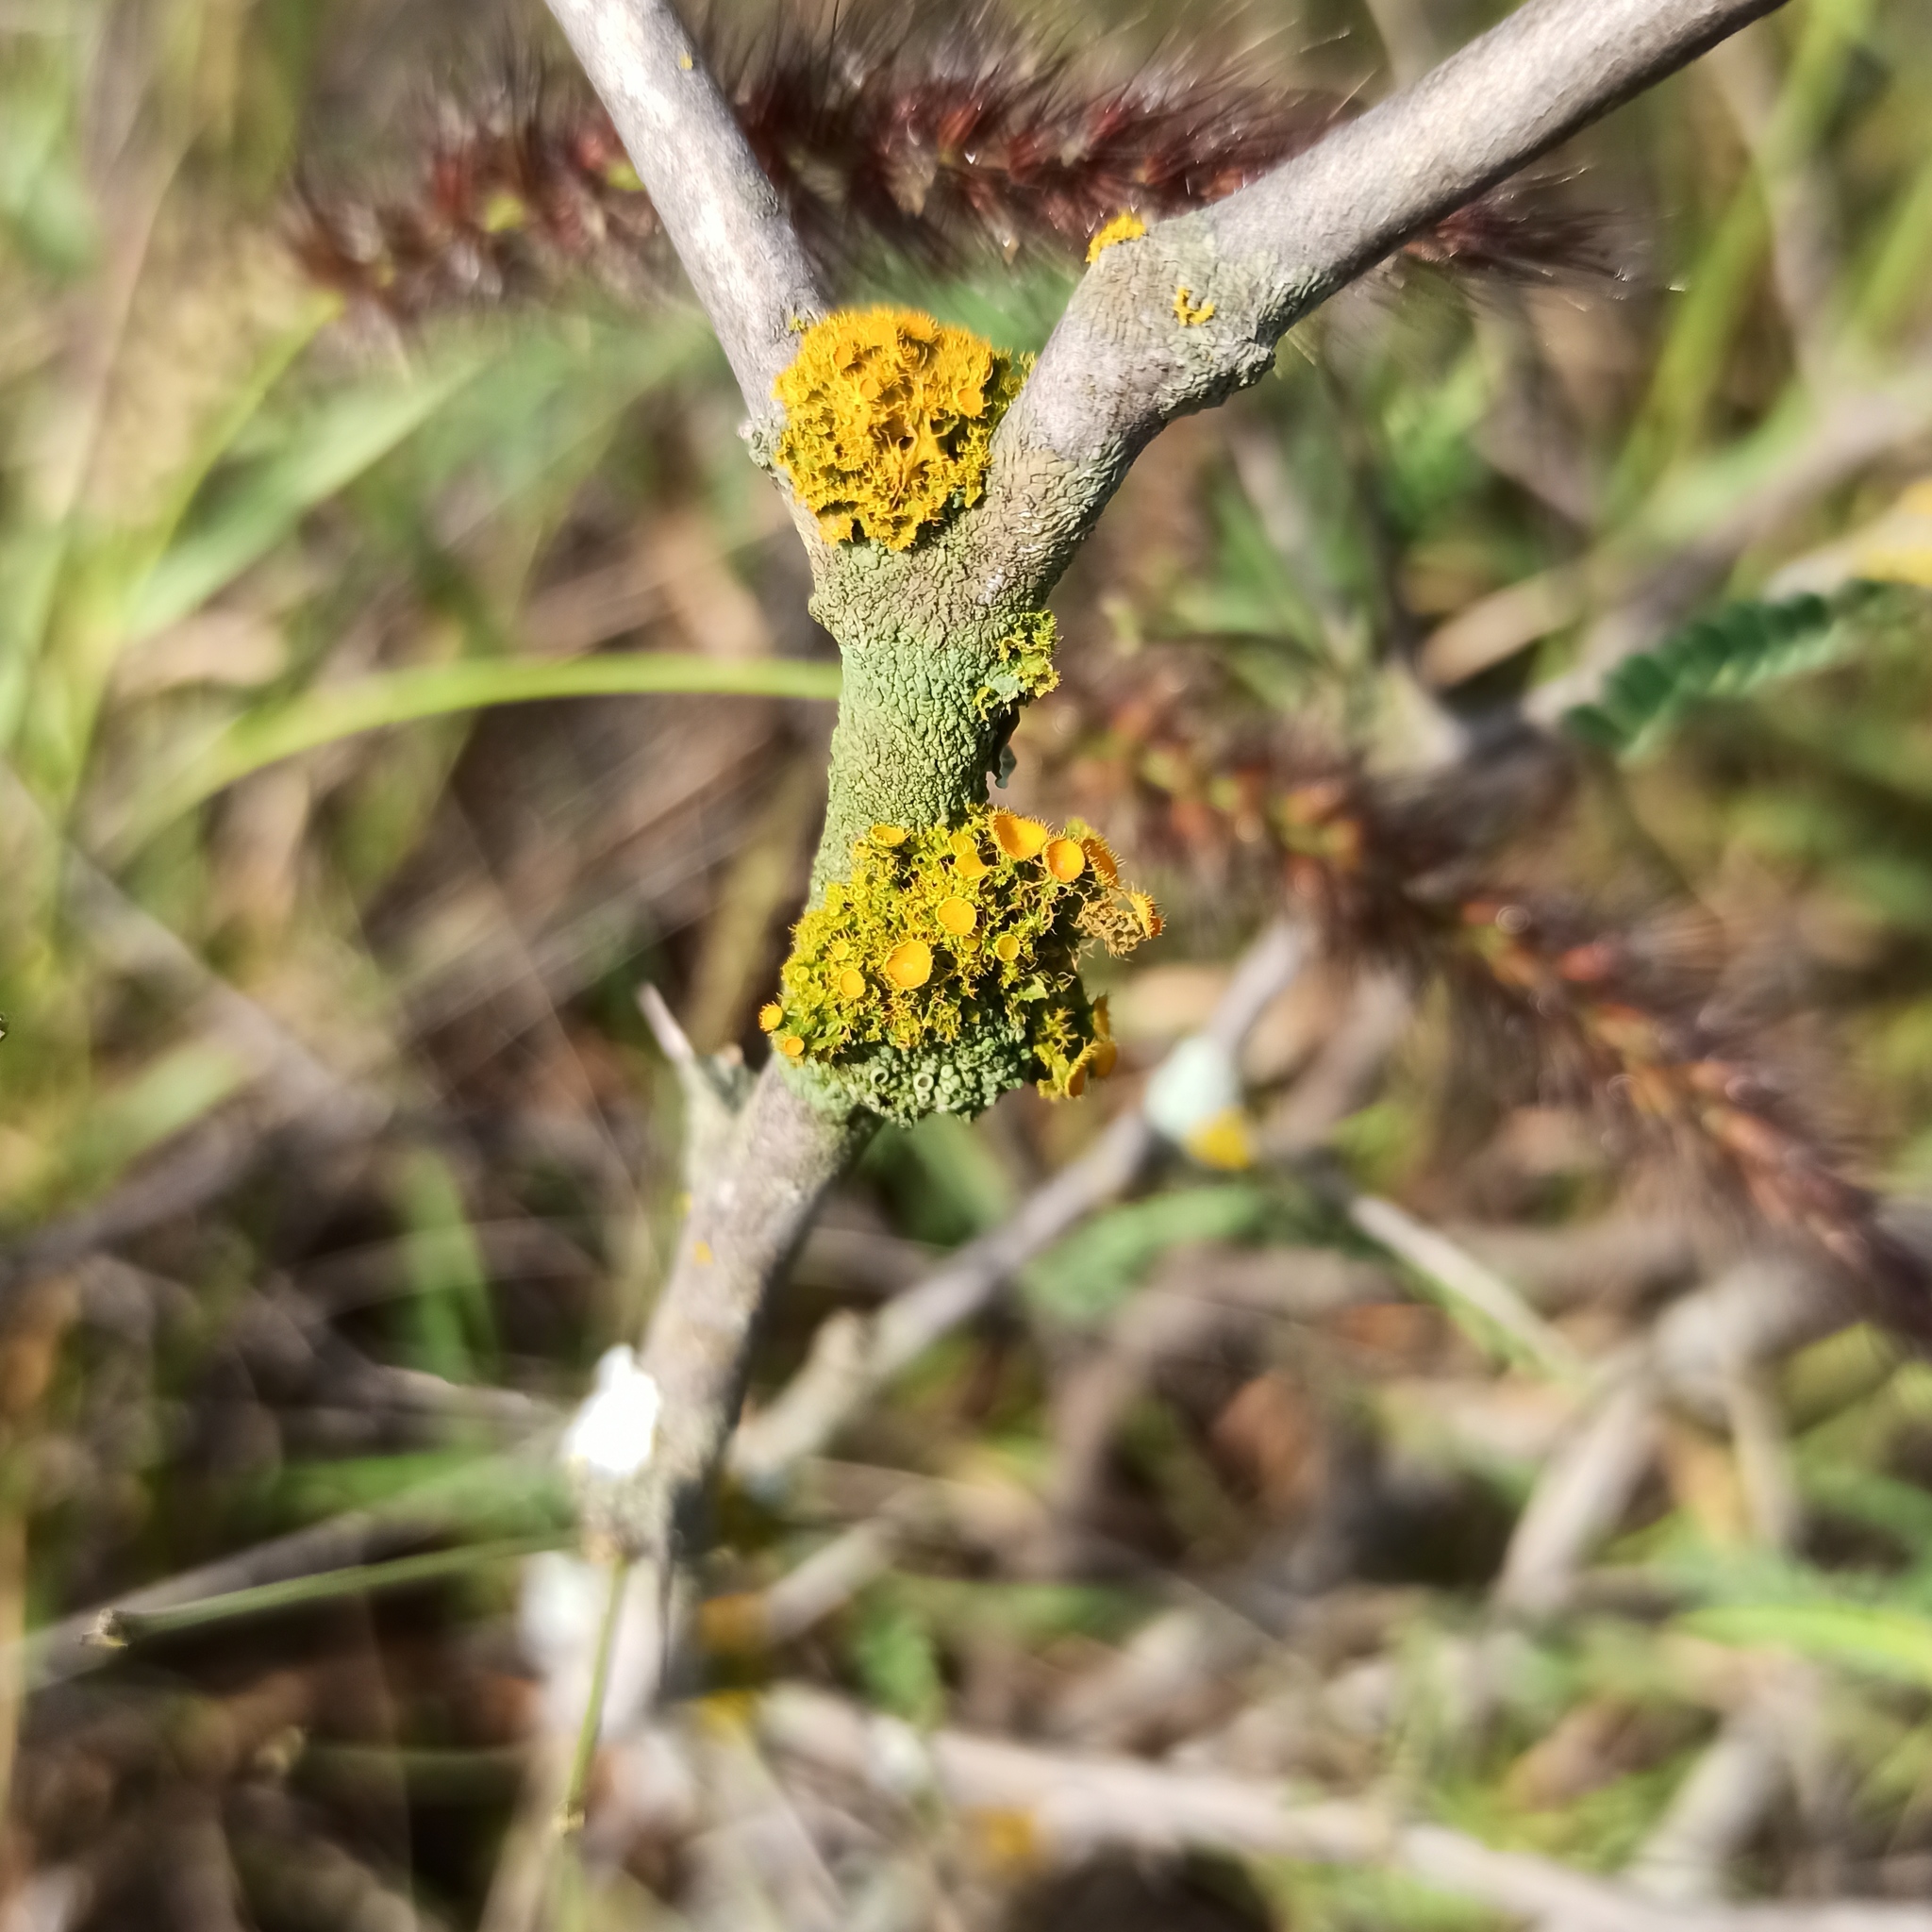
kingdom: Fungi
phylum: Ascomycota
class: Lecanoromycetes
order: Teloschistales
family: Teloschistaceae
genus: Niorma
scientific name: Niorma chrysophthalma
